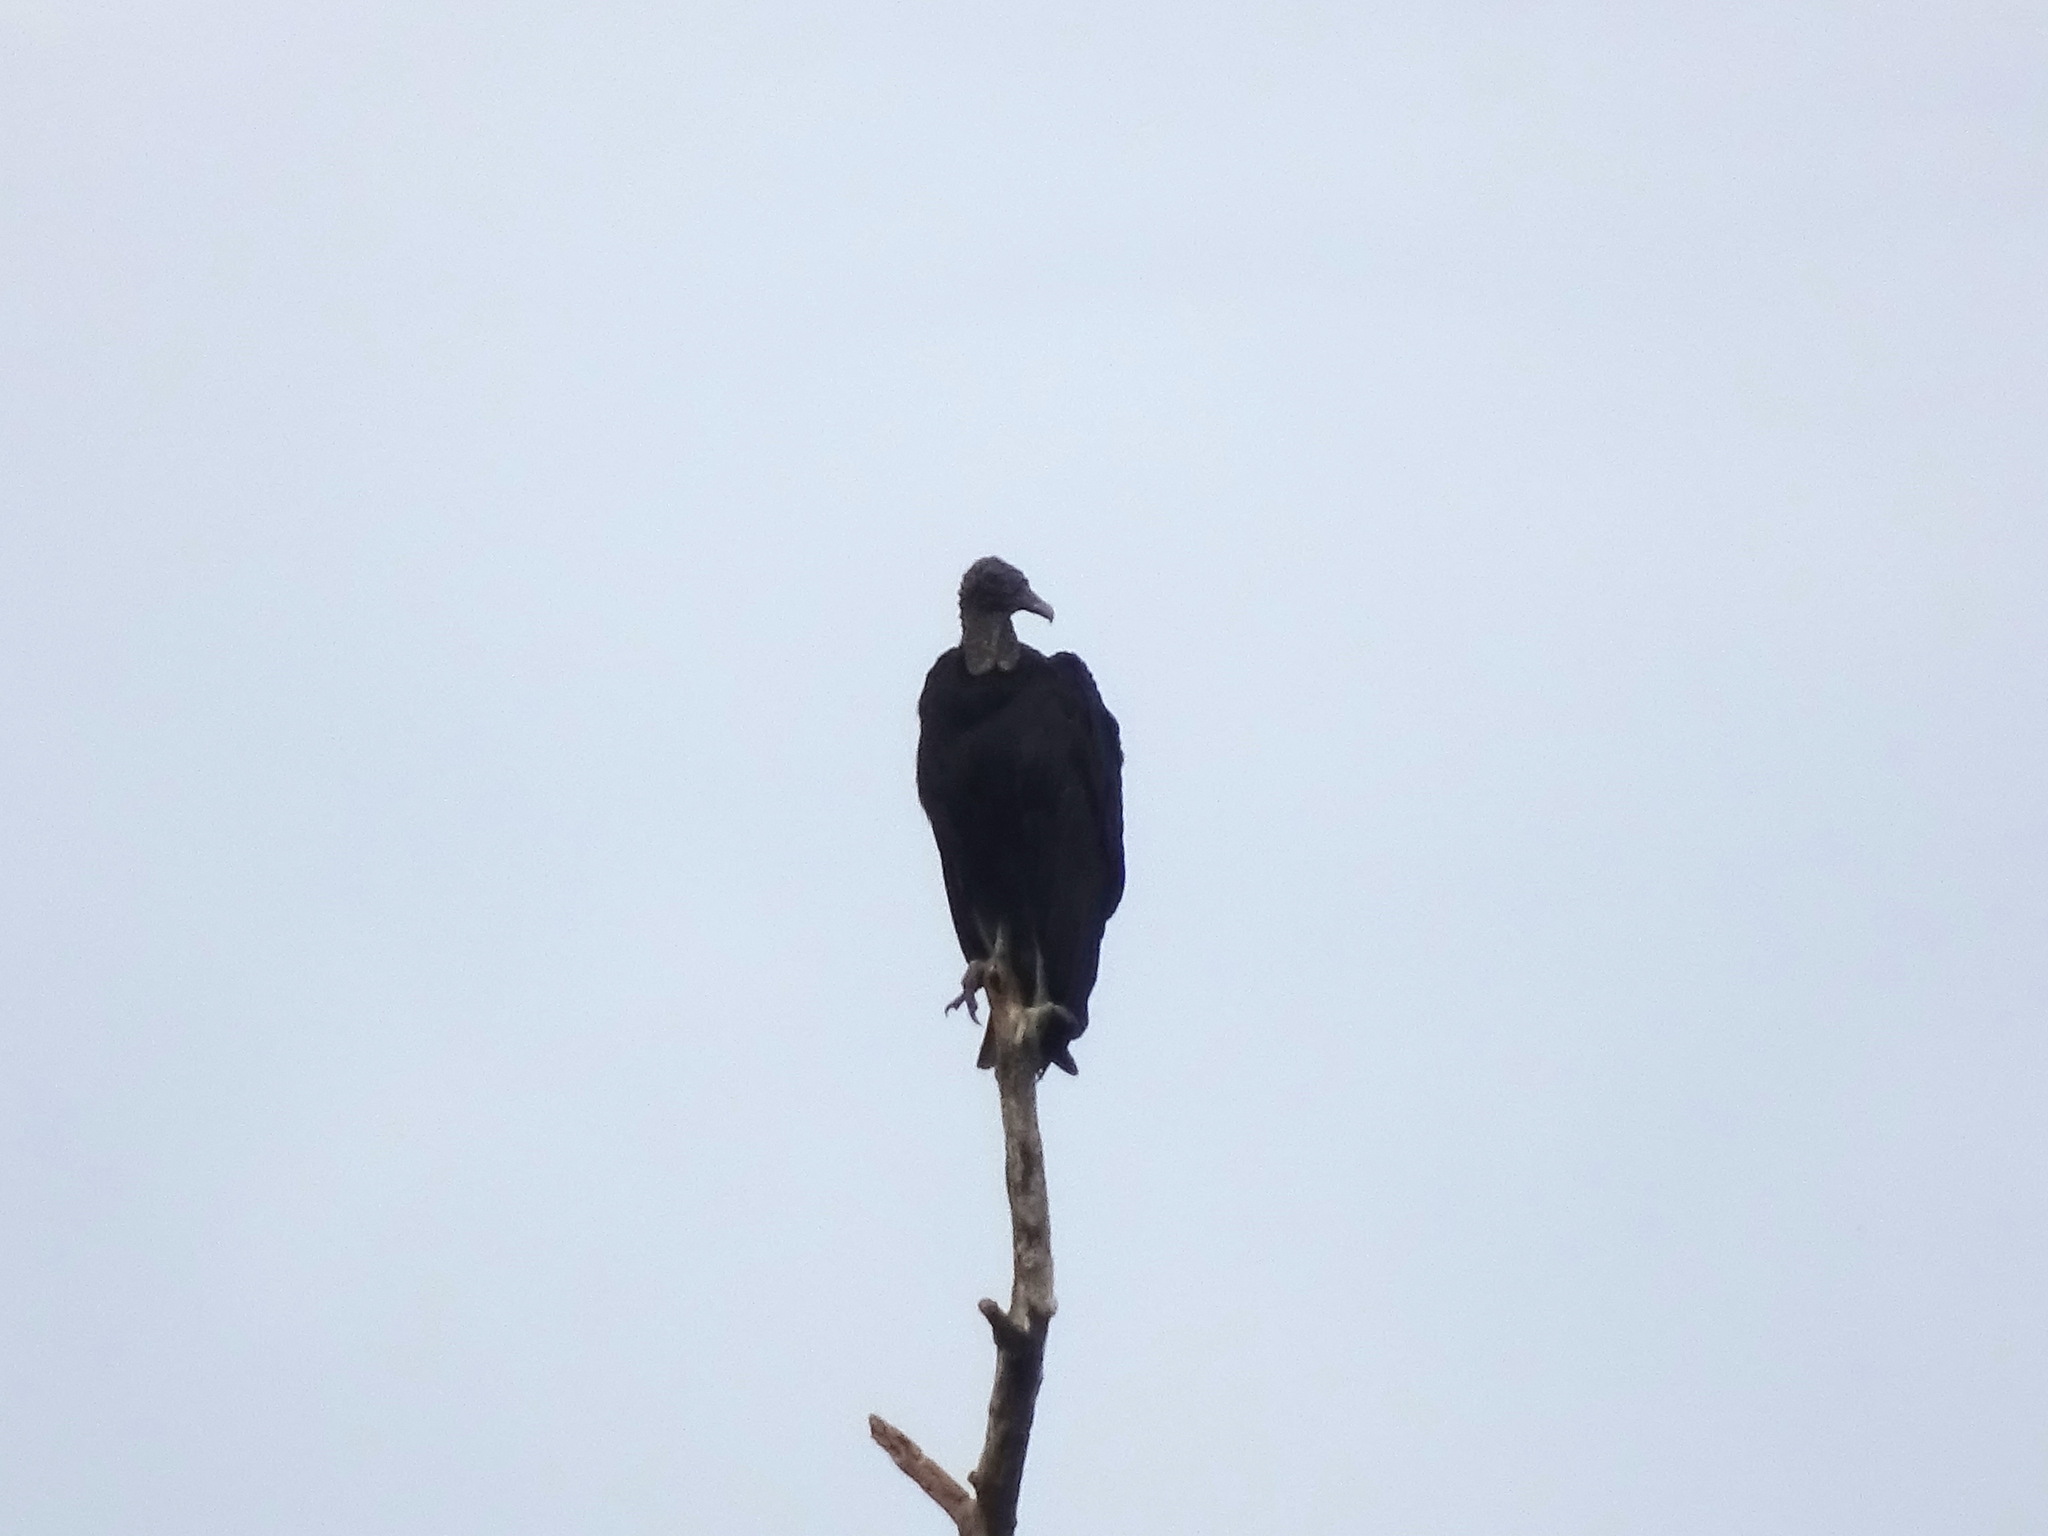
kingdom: Animalia
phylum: Chordata
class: Aves
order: Accipitriformes
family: Cathartidae
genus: Coragyps
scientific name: Coragyps atratus
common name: Black vulture
